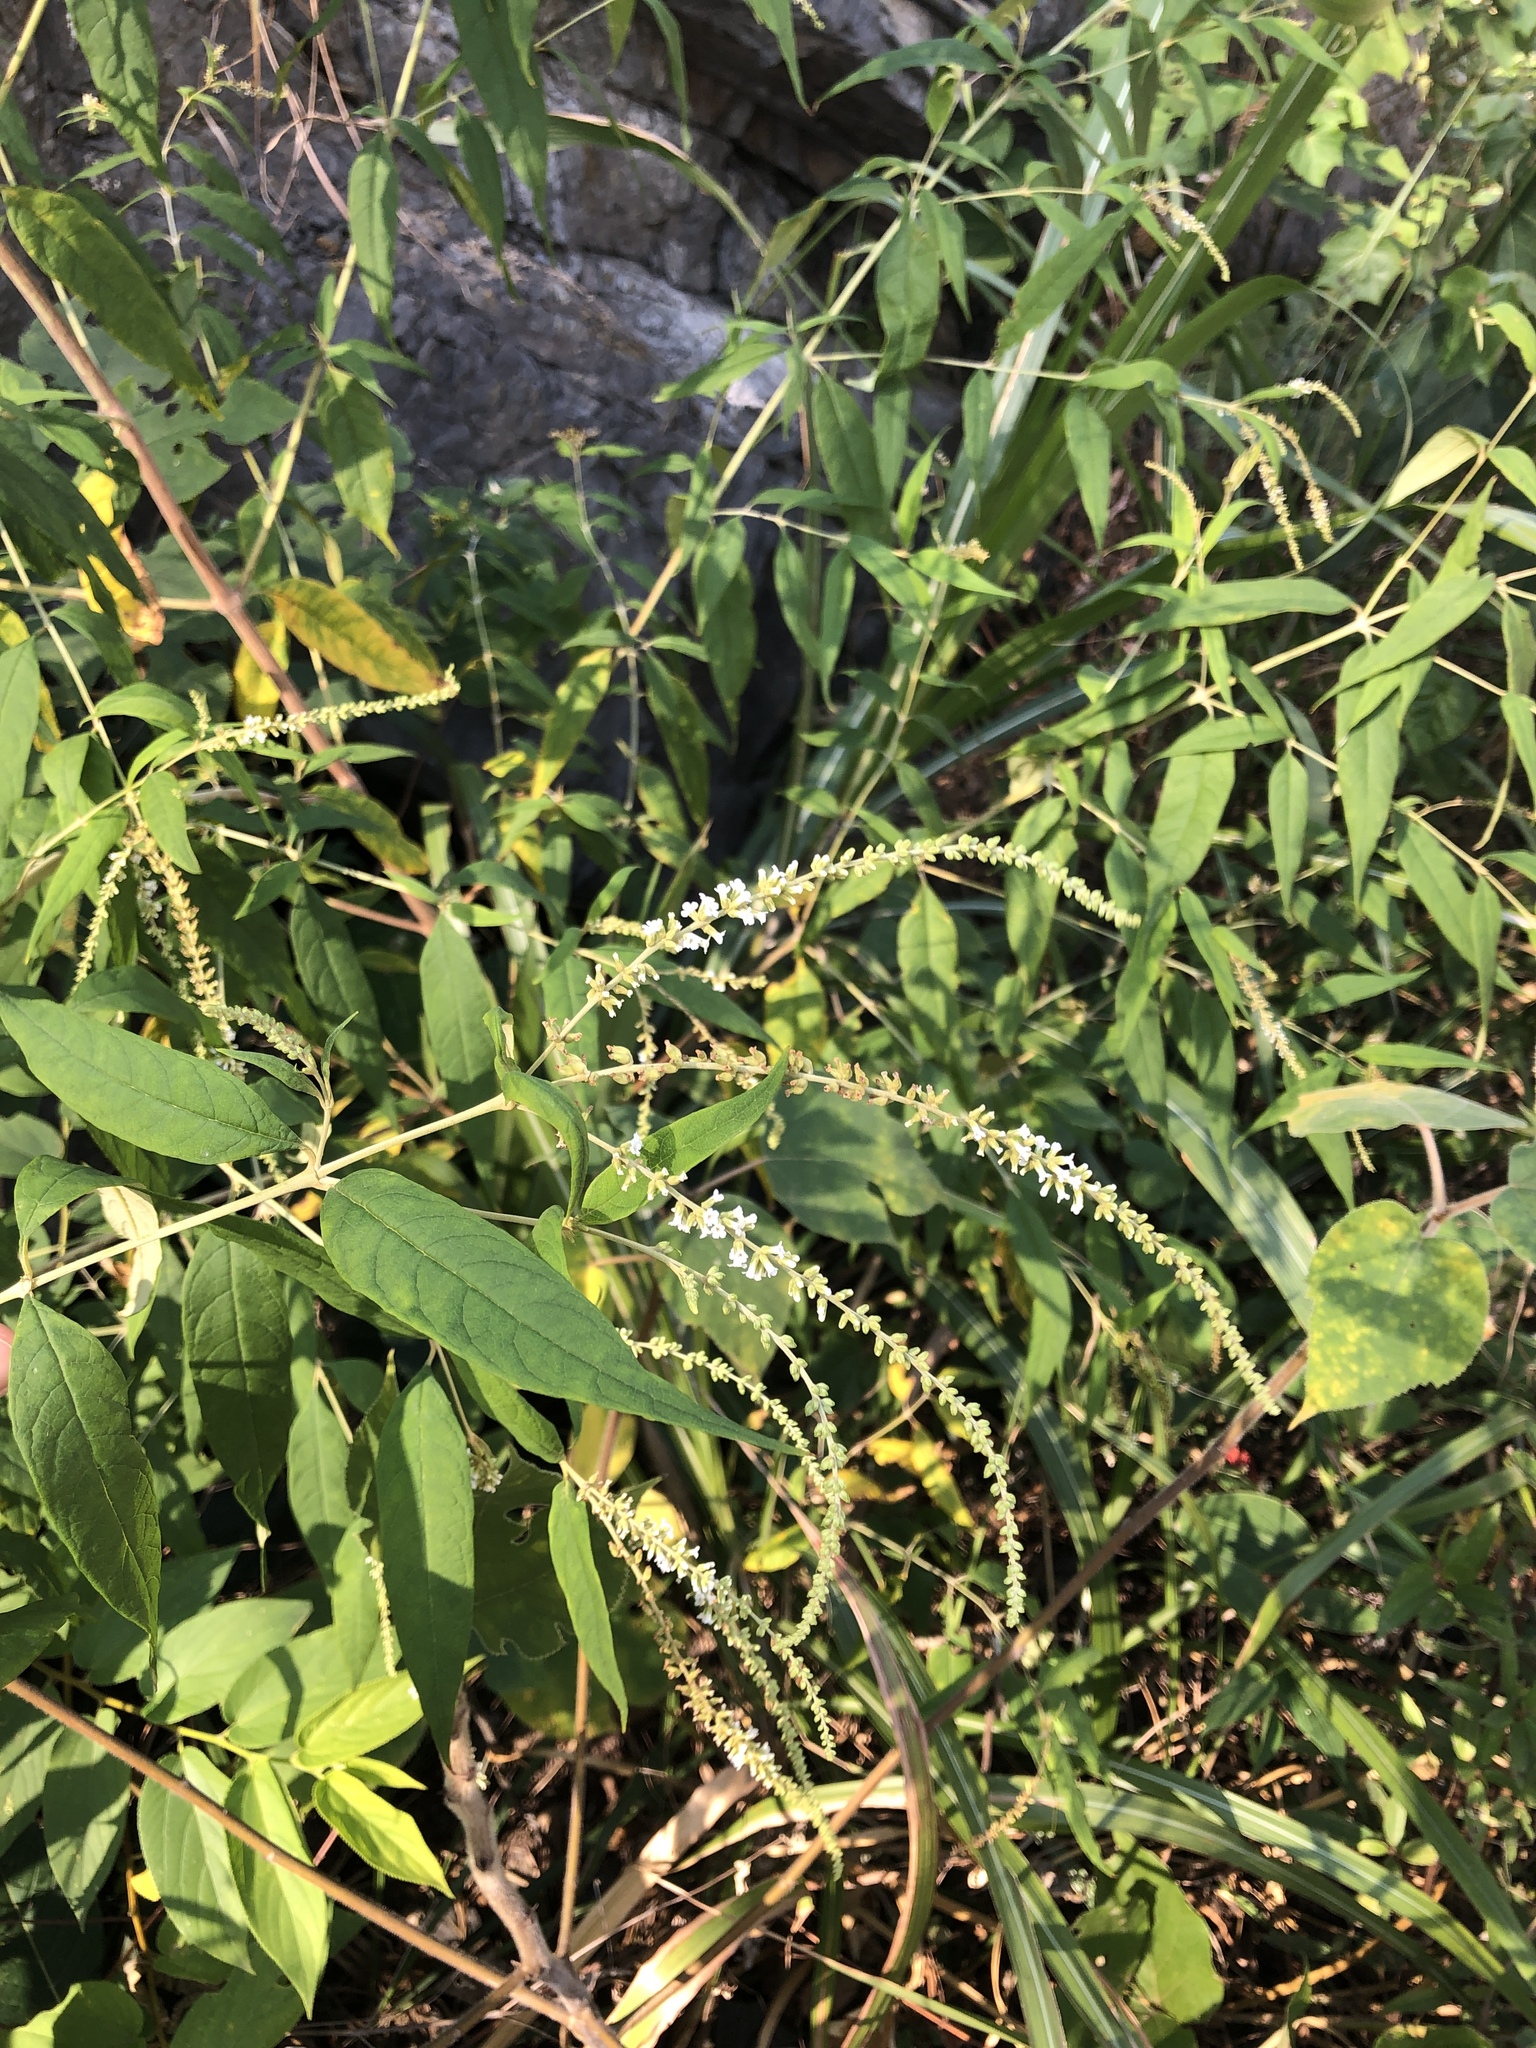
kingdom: Plantae
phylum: Tracheophyta
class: Magnoliopsida
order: Lamiales
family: Scrophulariaceae
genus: Buddleja
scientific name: Buddleja asiatica
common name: Dog tail
